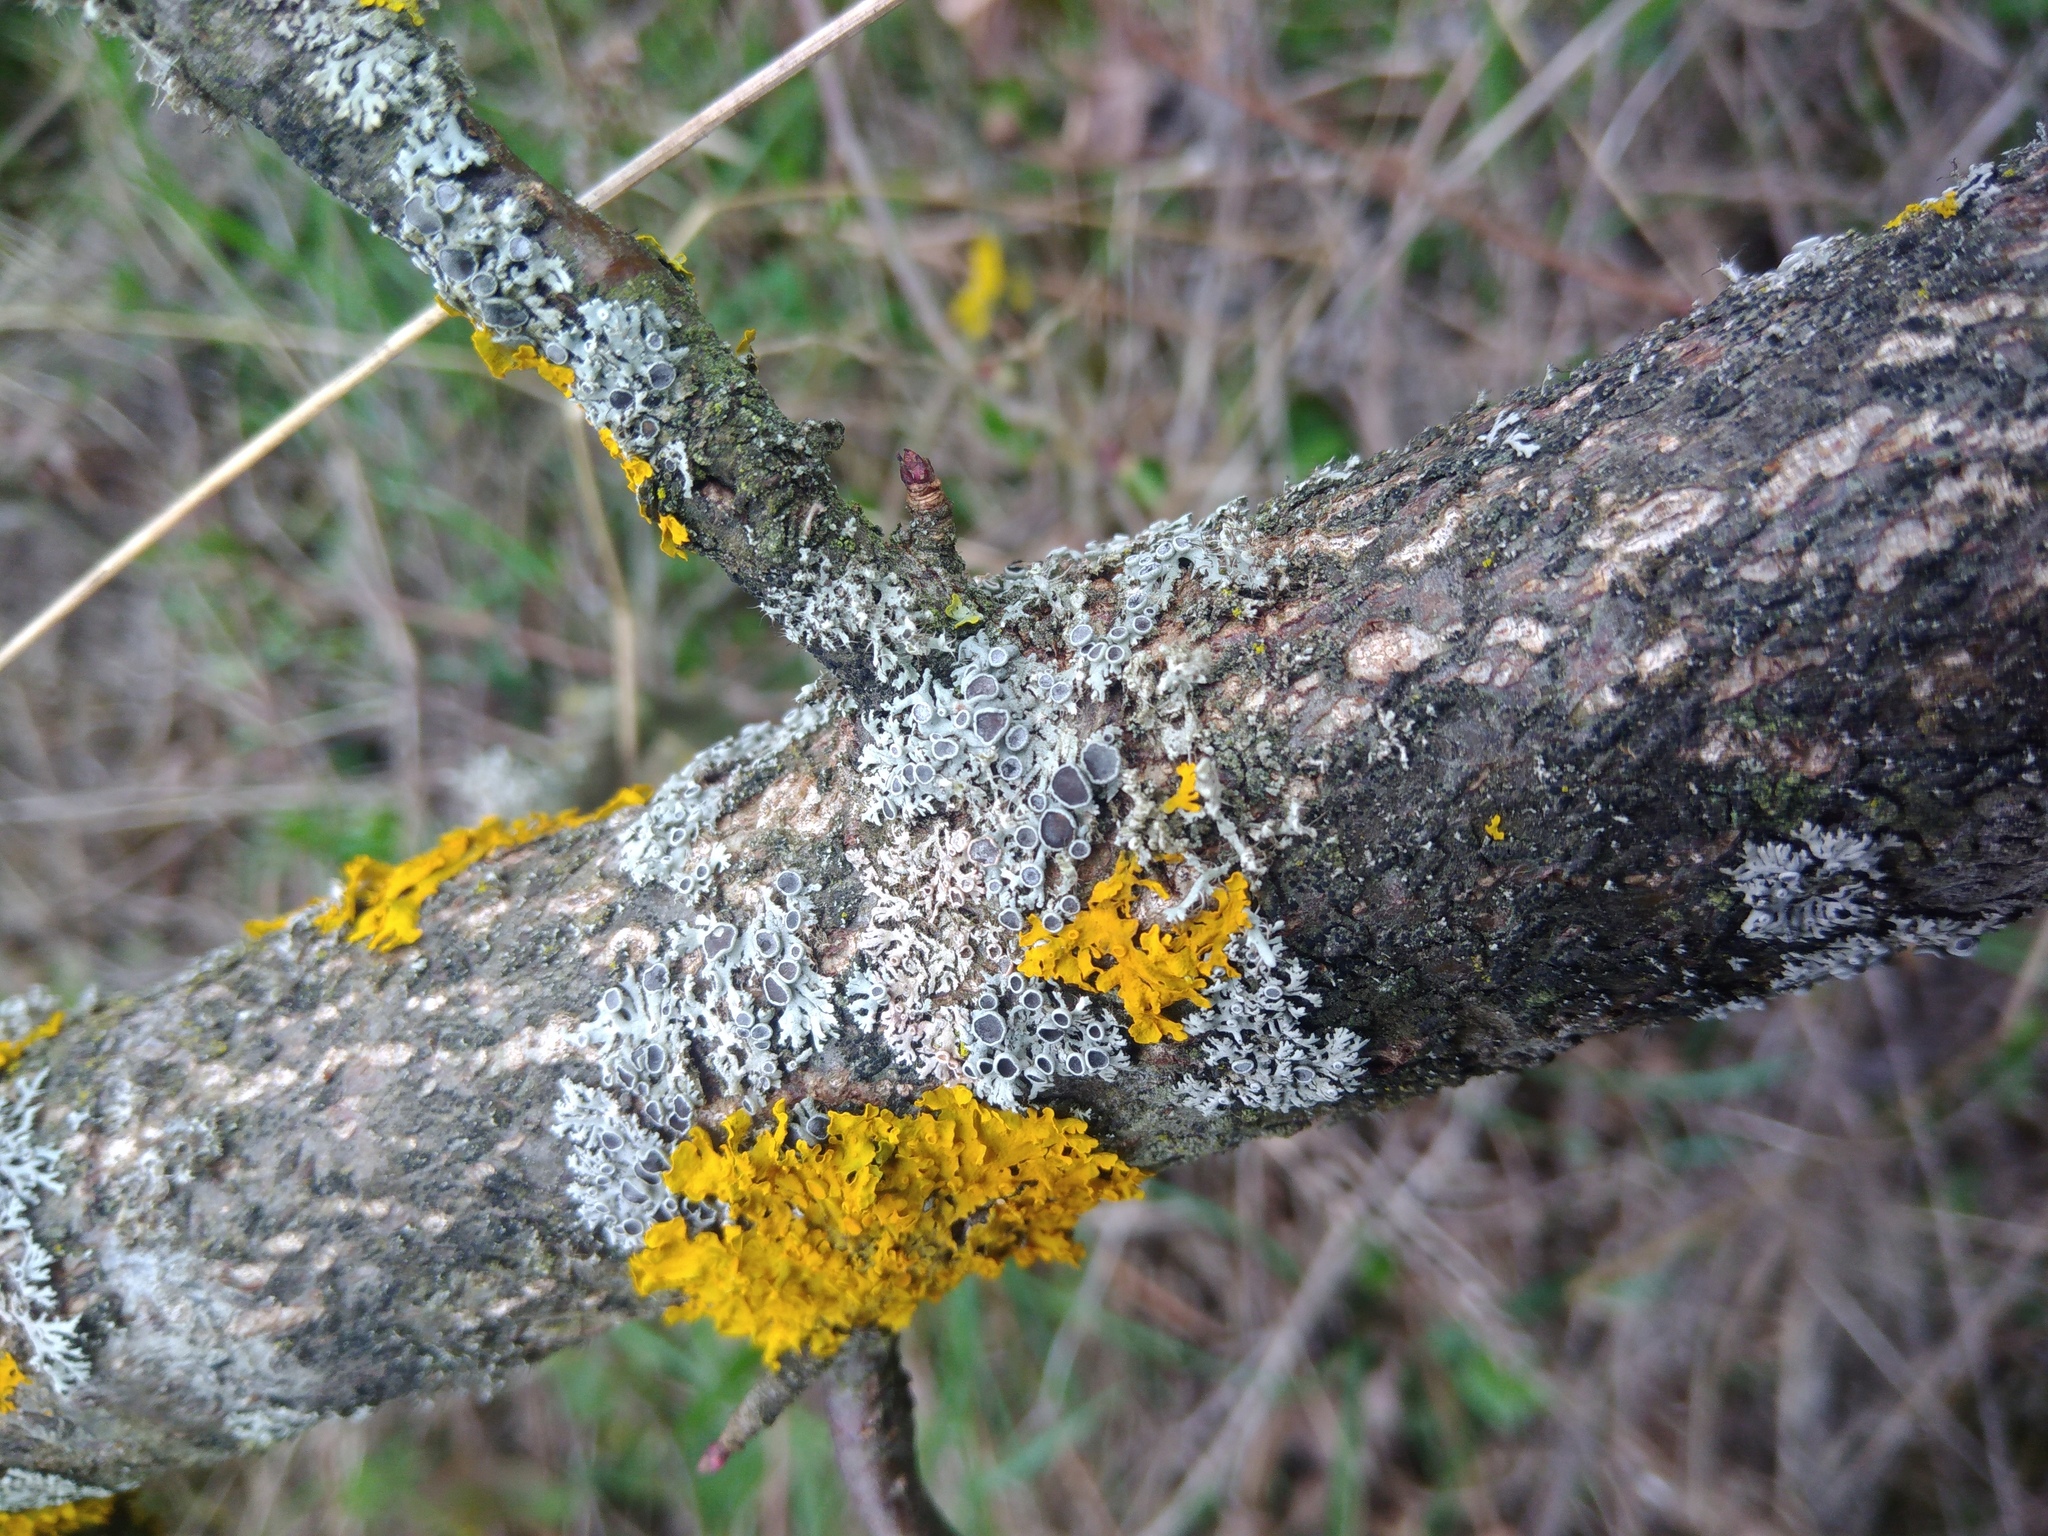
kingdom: Fungi
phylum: Ascomycota
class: Lecanoromycetes
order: Caliciales
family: Physciaceae
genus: Physcia
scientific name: Physcia stellaris
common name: Star rosette lichen
